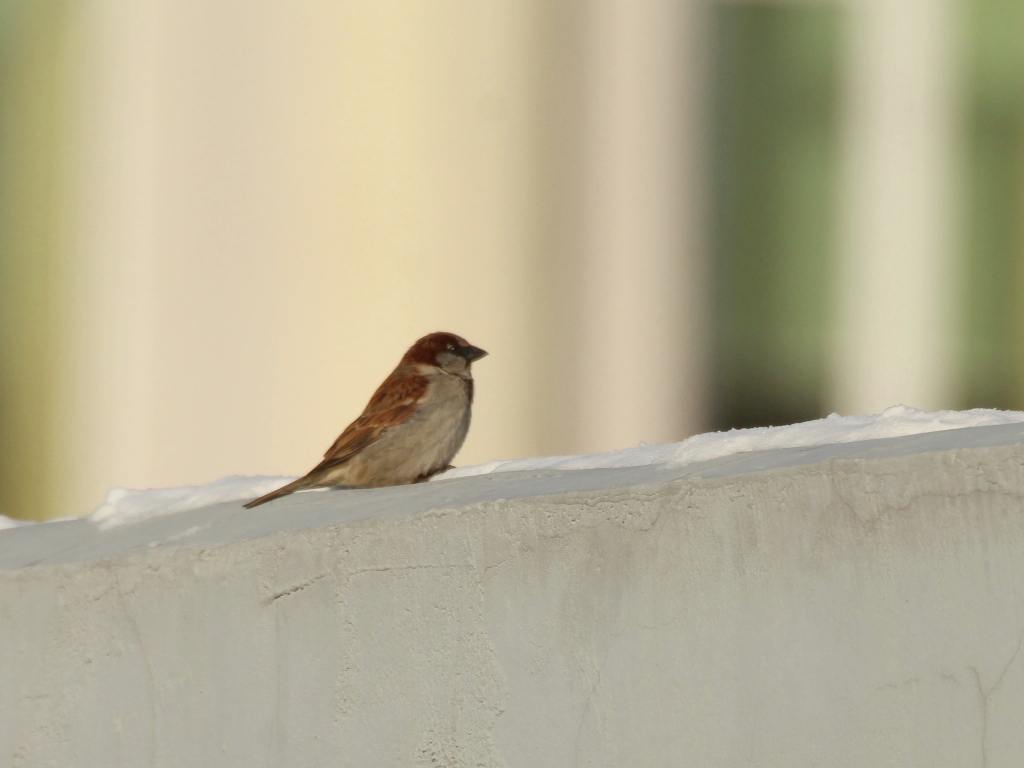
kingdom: Animalia
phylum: Chordata
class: Aves
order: Passeriformes
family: Passeridae
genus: Passer
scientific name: Passer domesticus
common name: House sparrow
